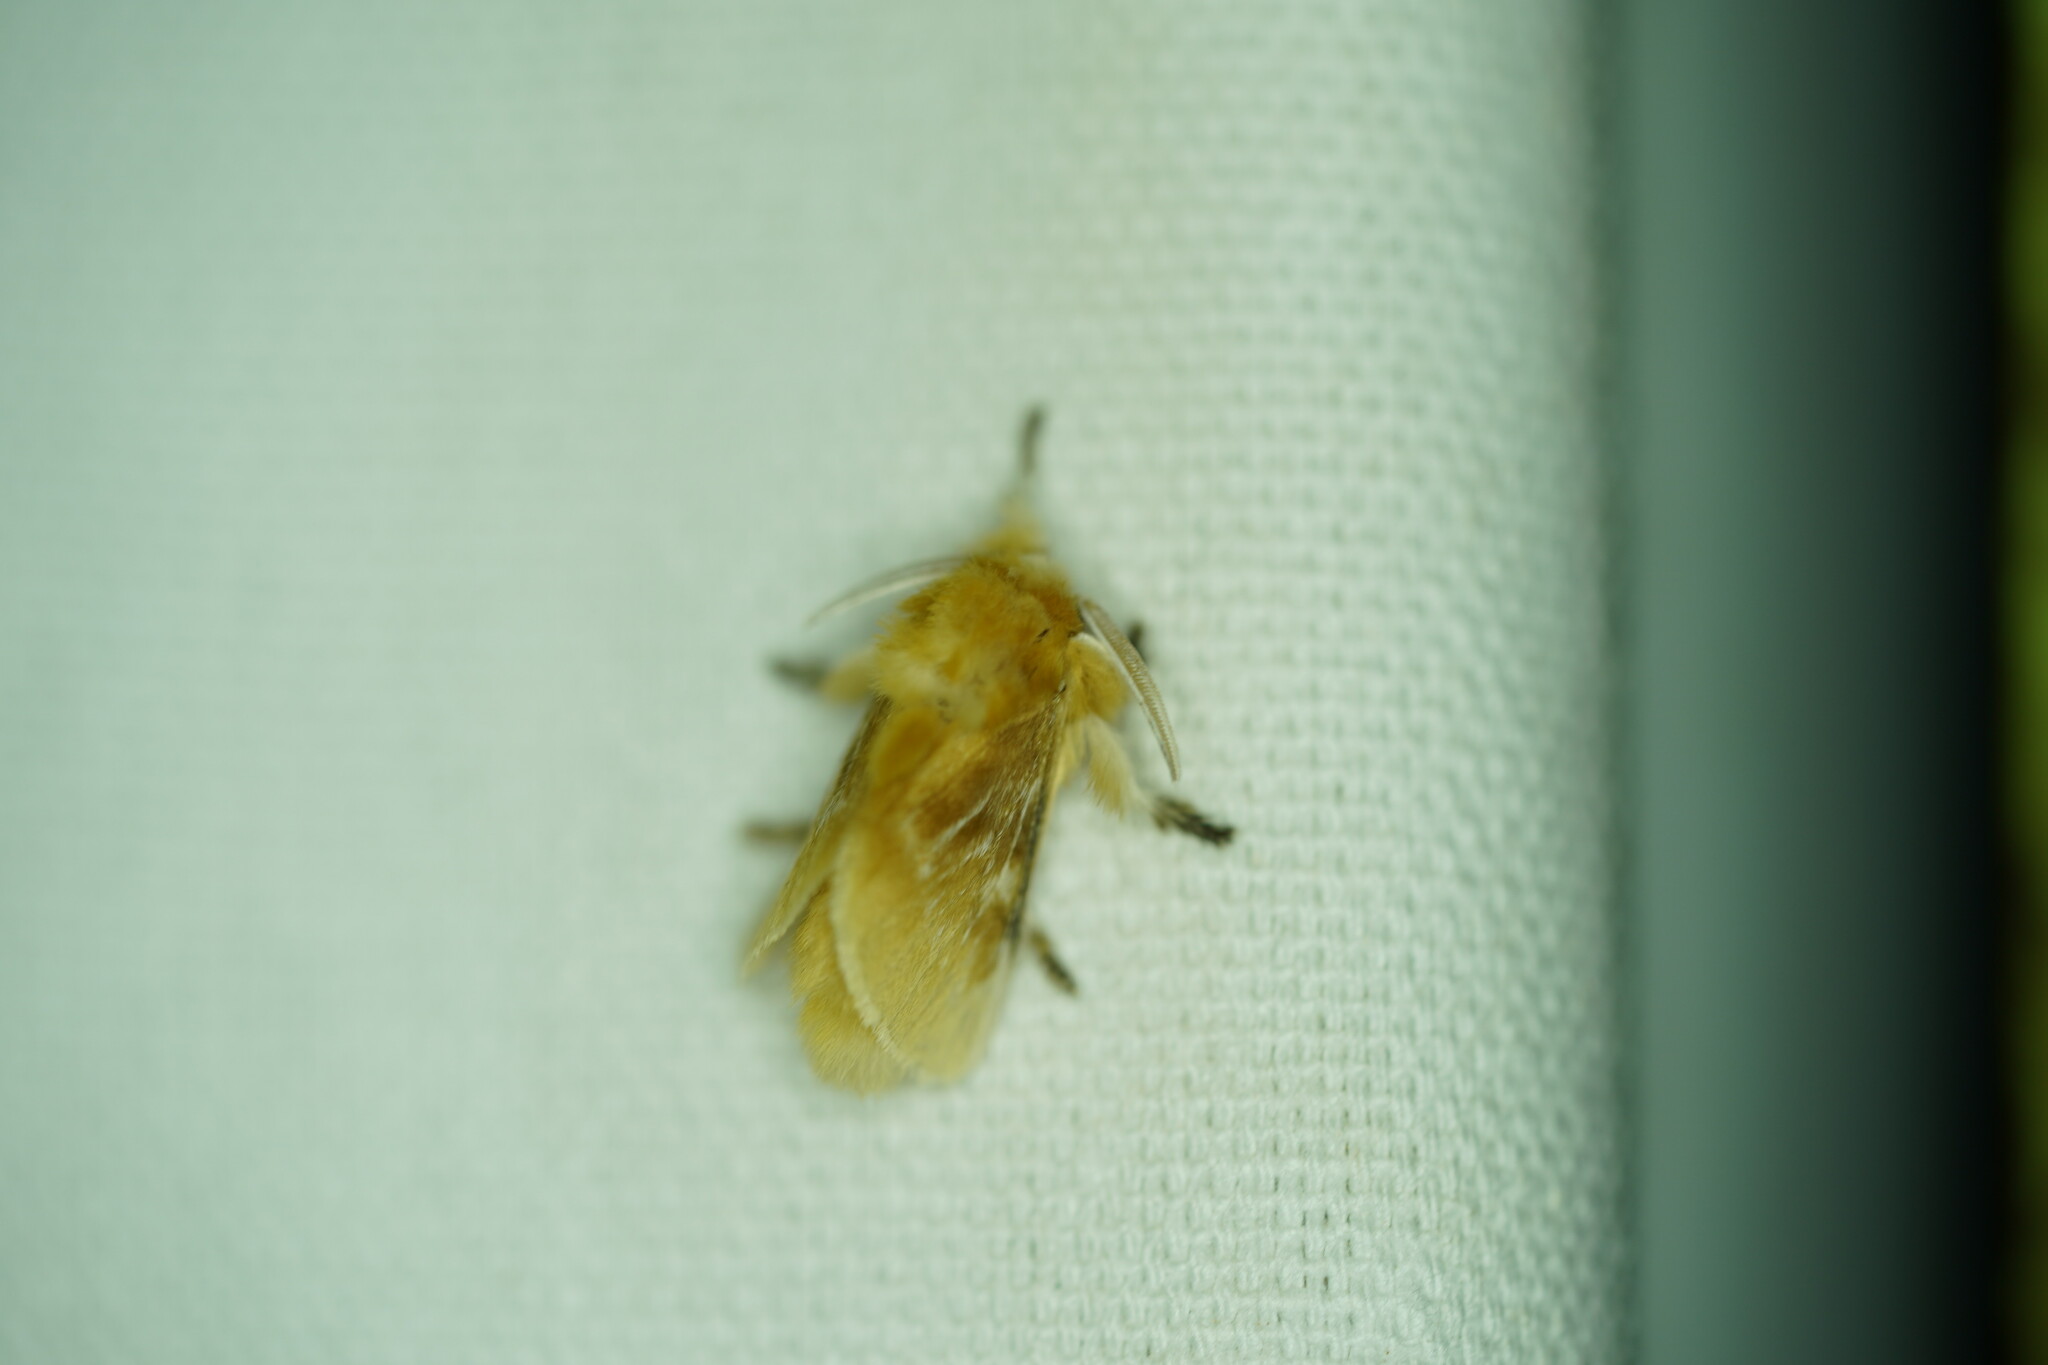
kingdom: Animalia
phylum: Arthropoda
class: Insecta
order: Lepidoptera
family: Megalopygidae
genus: Megalopyge
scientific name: Megalopyge opercularis
